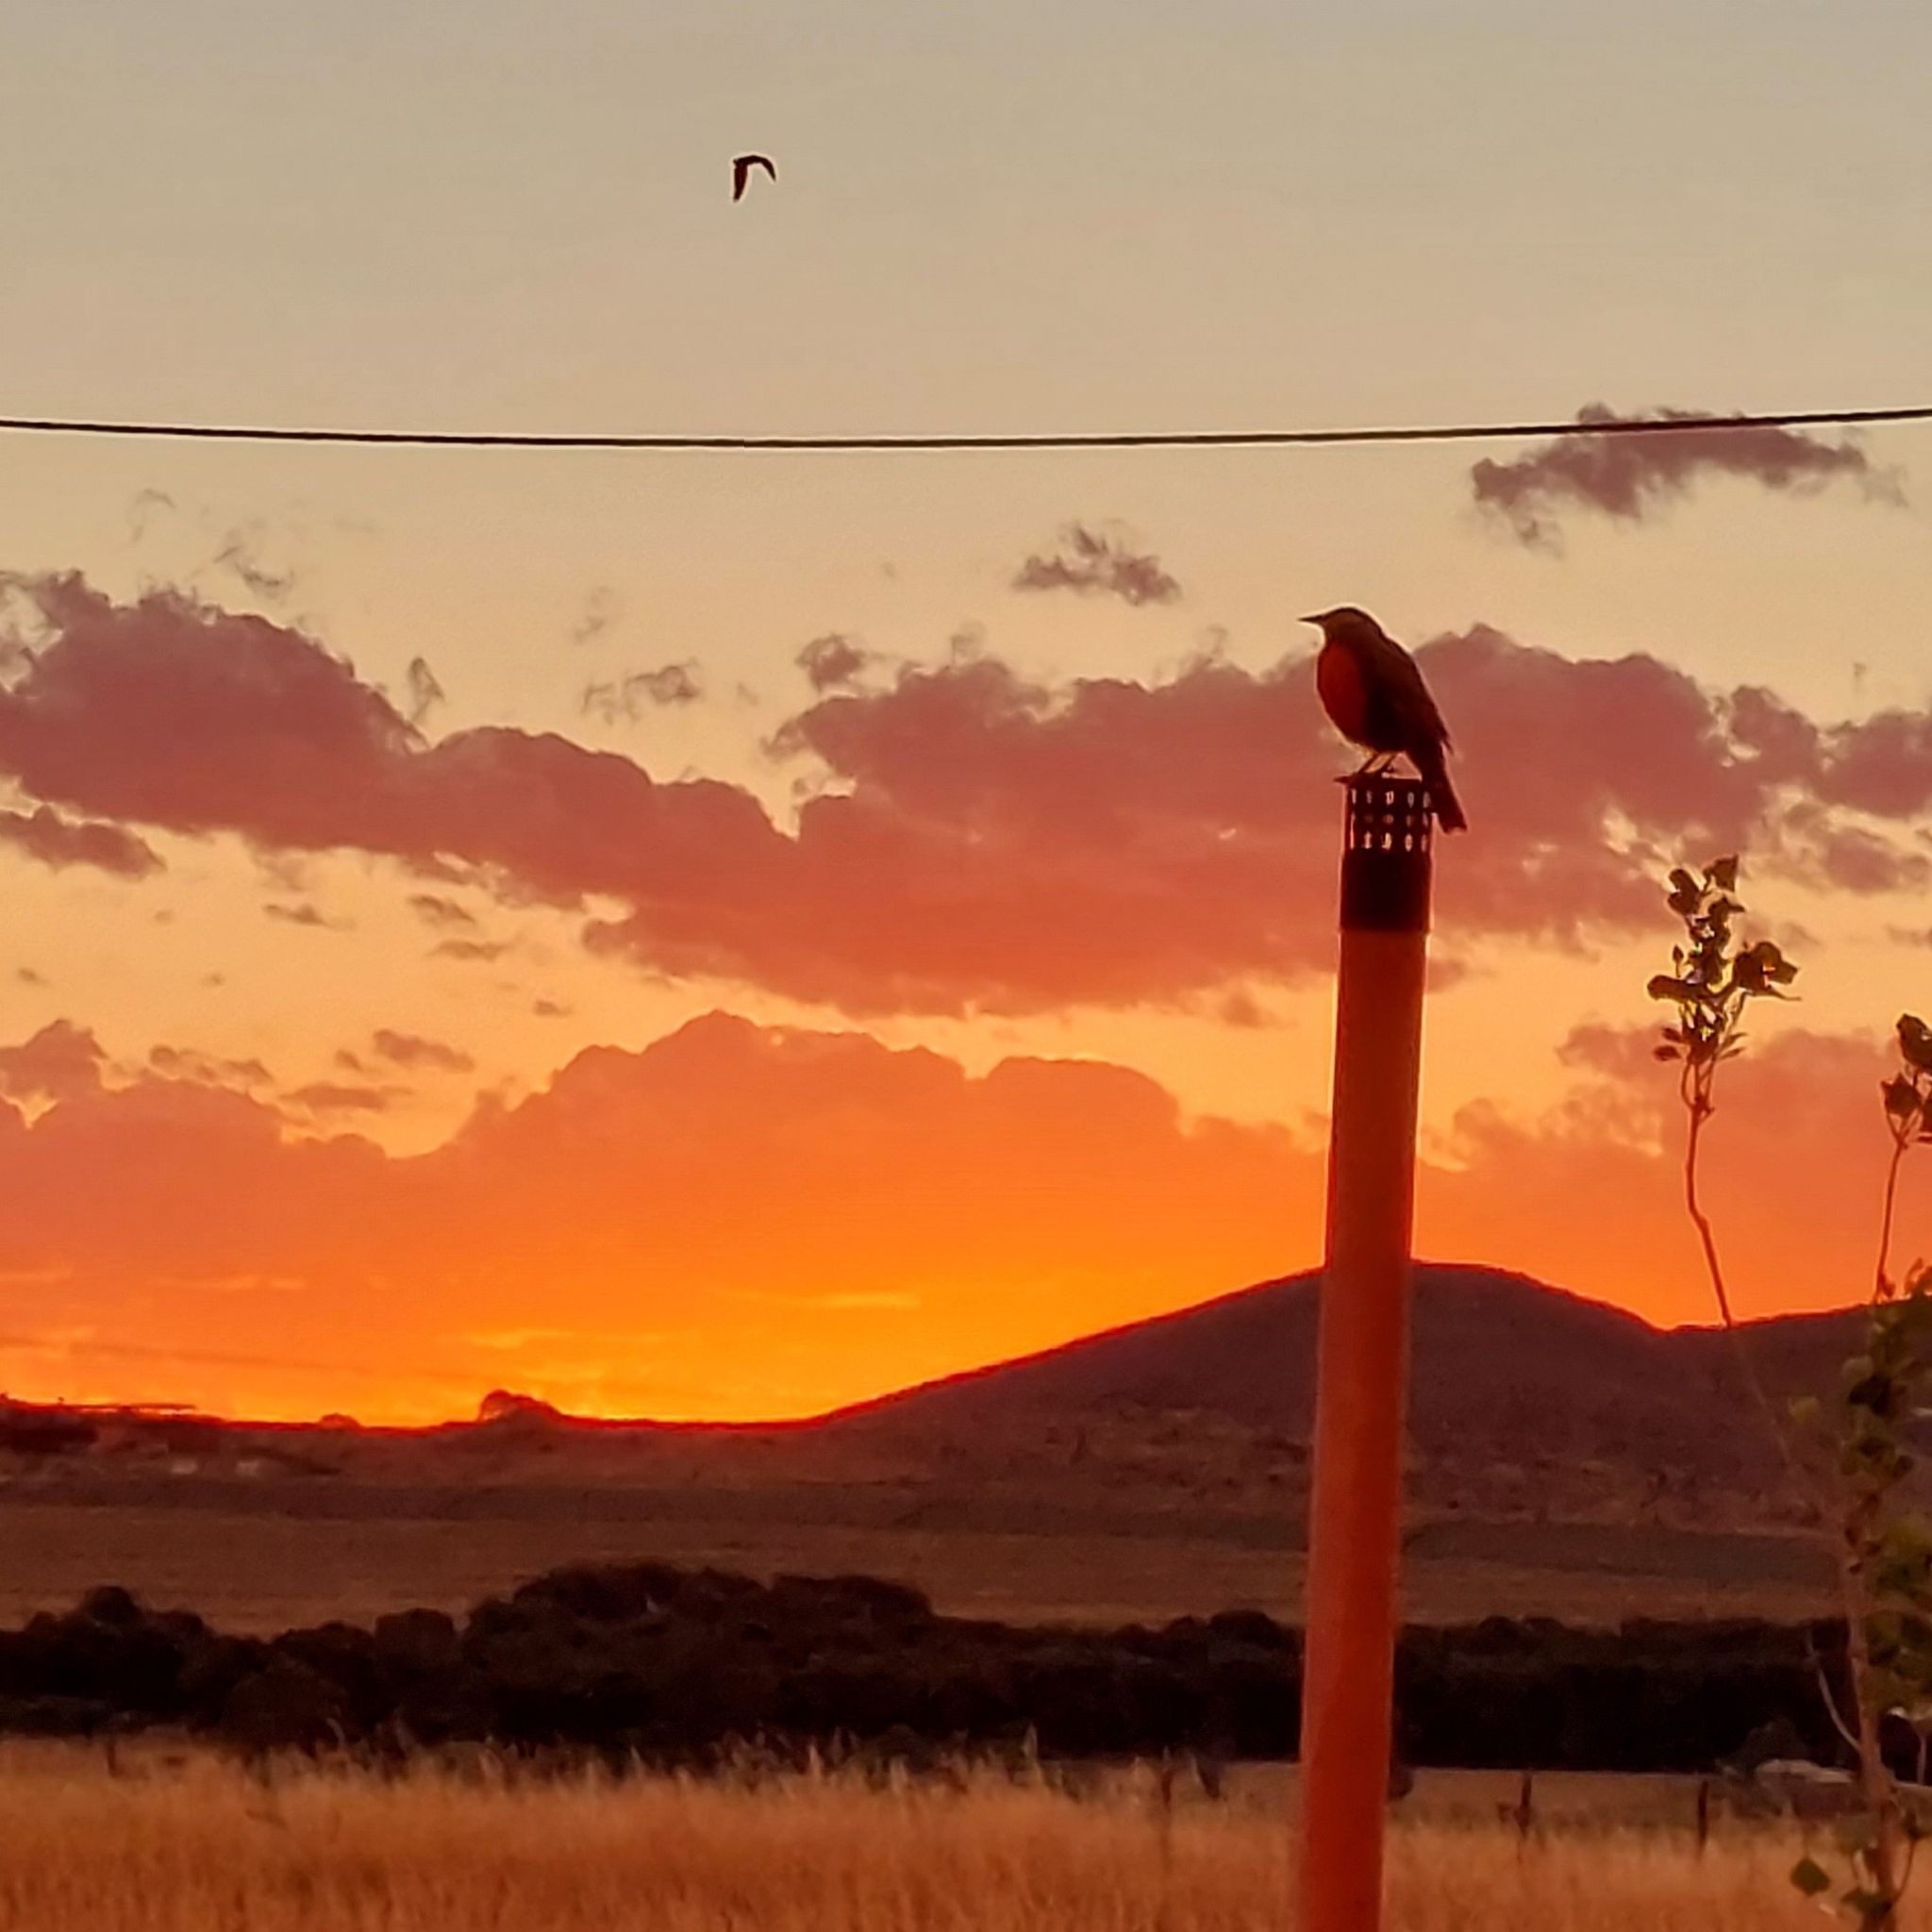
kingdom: Animalia
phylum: Chordata
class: Aves
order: Passeriformes
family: Icteridae
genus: Sturnella
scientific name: Sturnella loyca
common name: Long-tailed meadowlark
